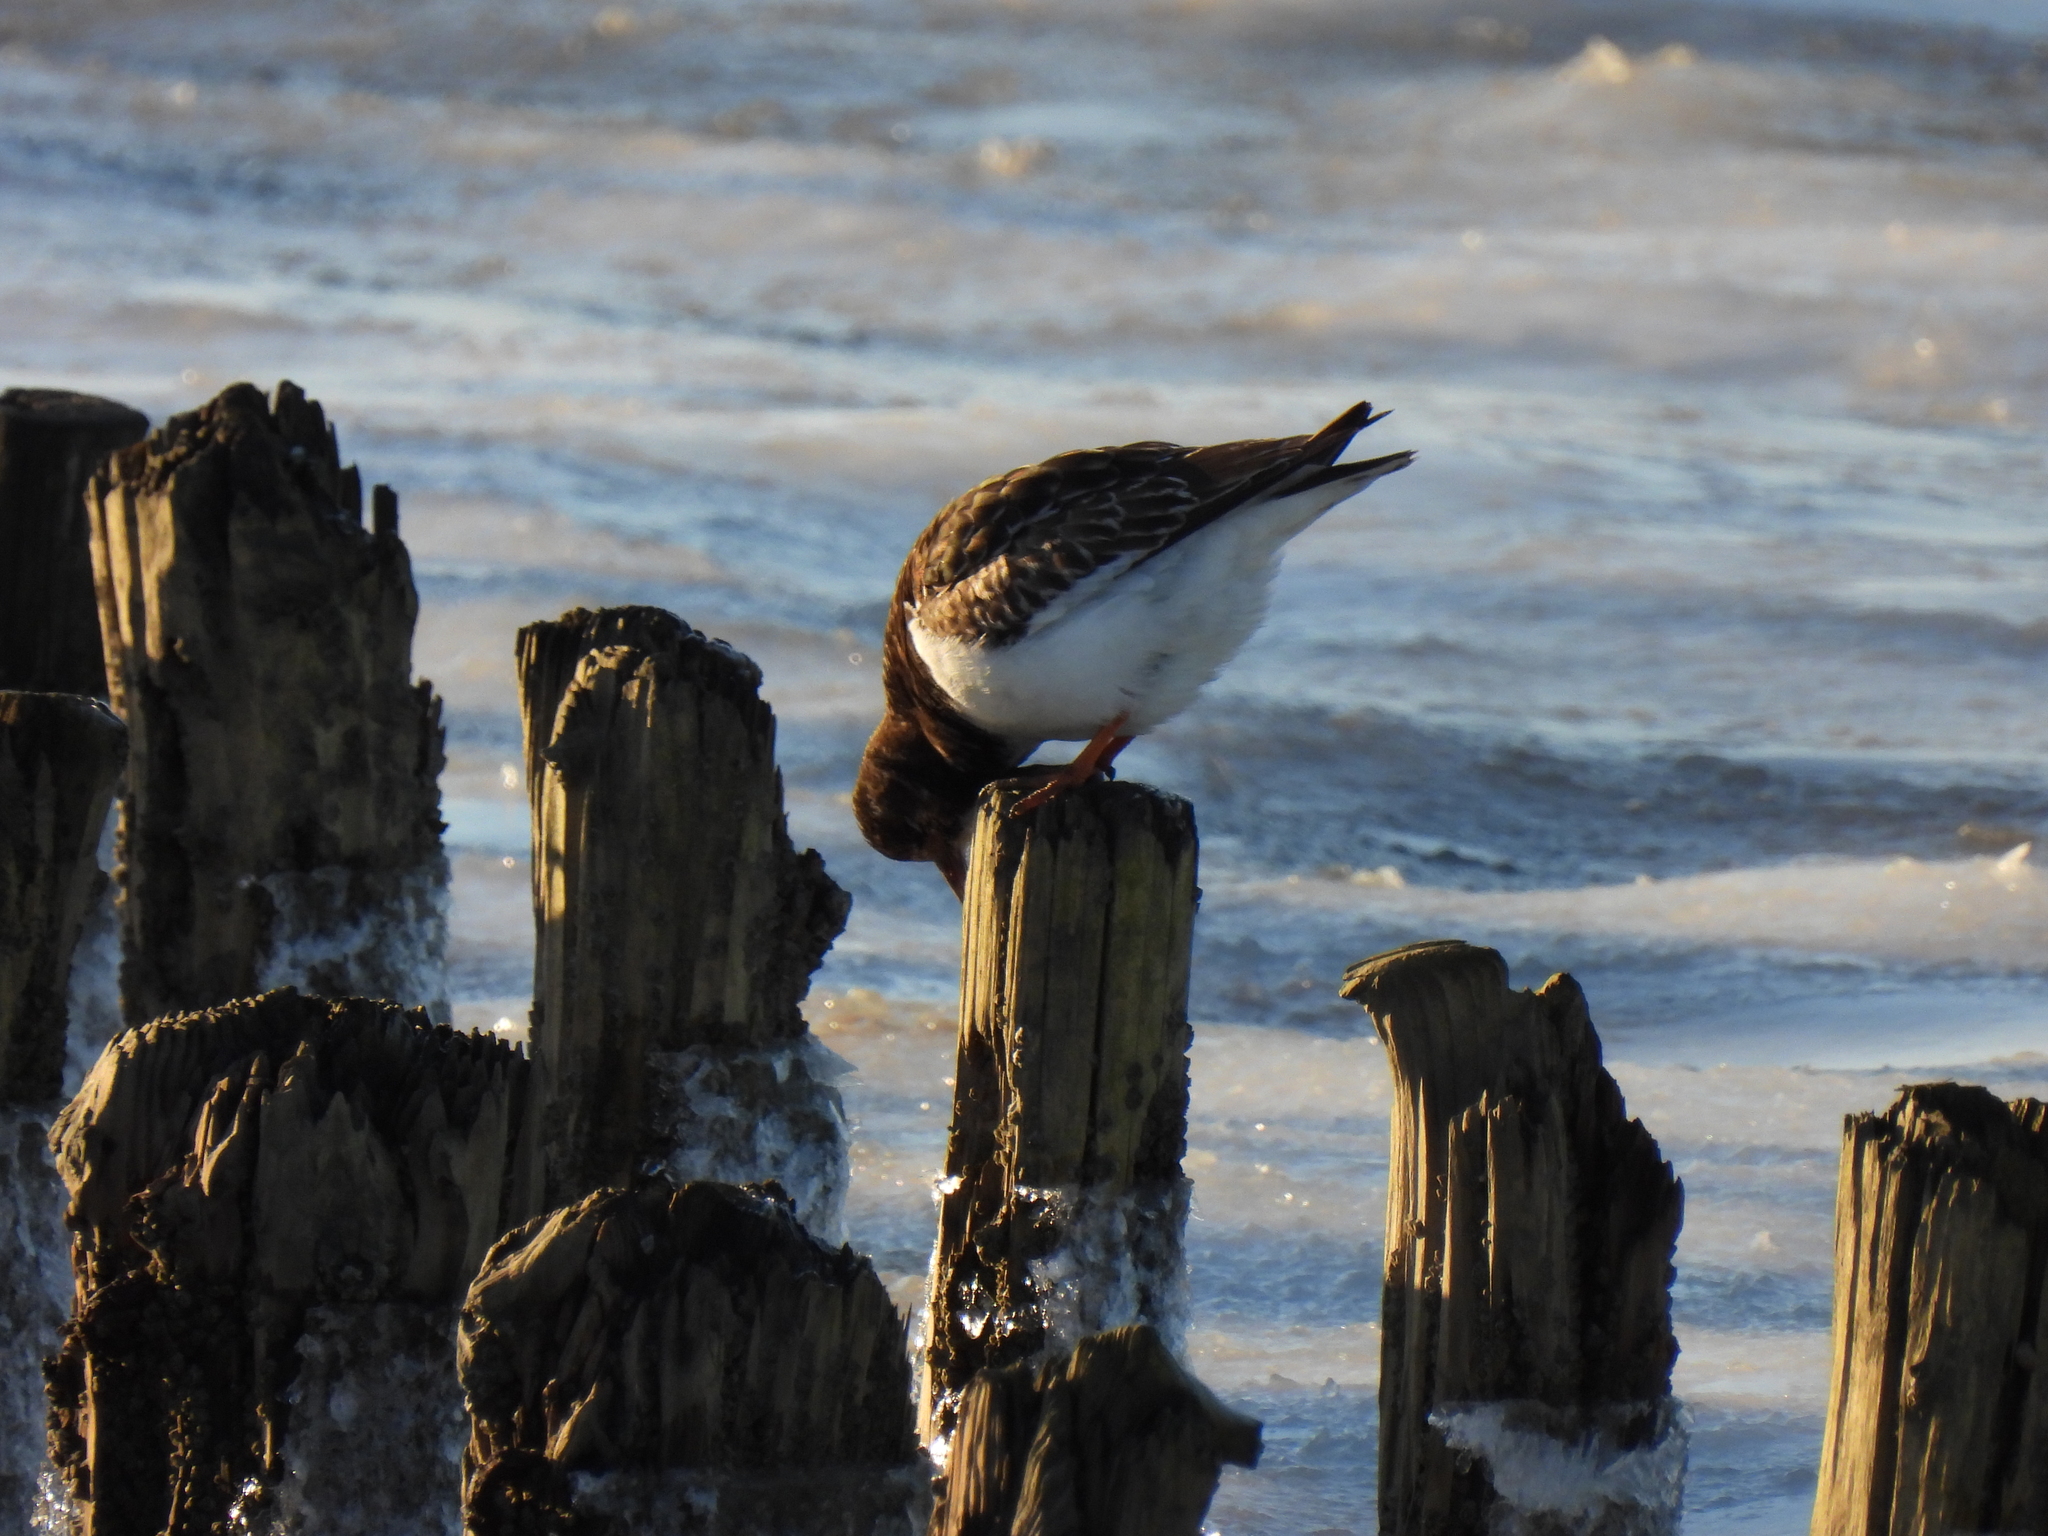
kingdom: Animalia
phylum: Chordata
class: Aves
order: Charadriiformes
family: Scolopacidae
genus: Arenaria
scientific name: Arenaria interpres
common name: Ruddy turnstone
